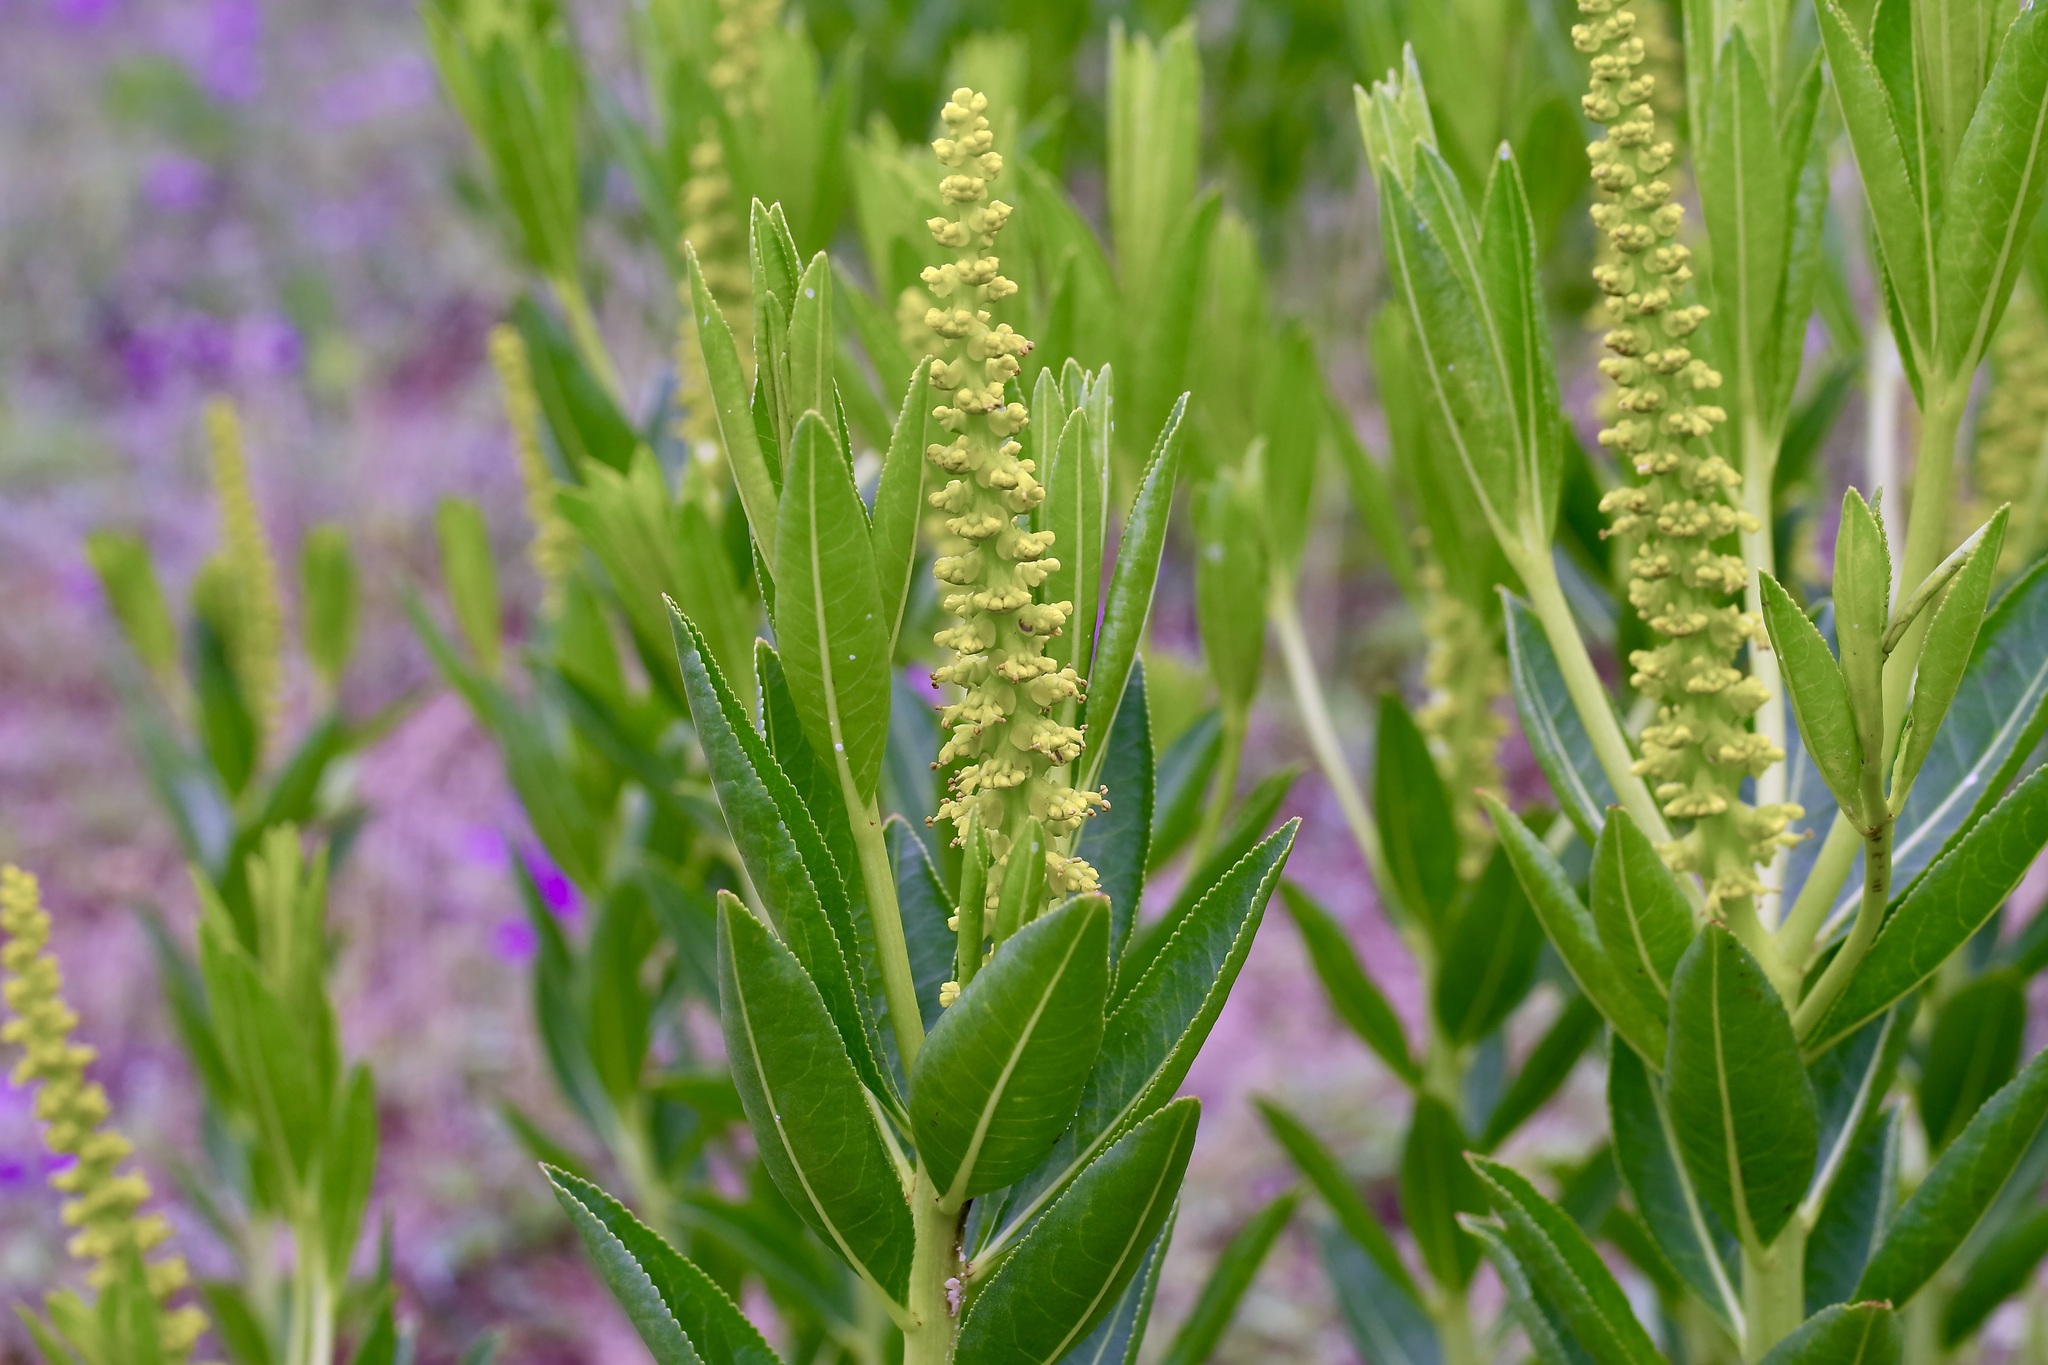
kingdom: Plantae
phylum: Tracheophyta
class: Magnoliopsida
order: Malpighiales
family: Euphorbiaceae
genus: Stillingia
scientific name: Stillingia sylvatica
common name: Queen's-delight
